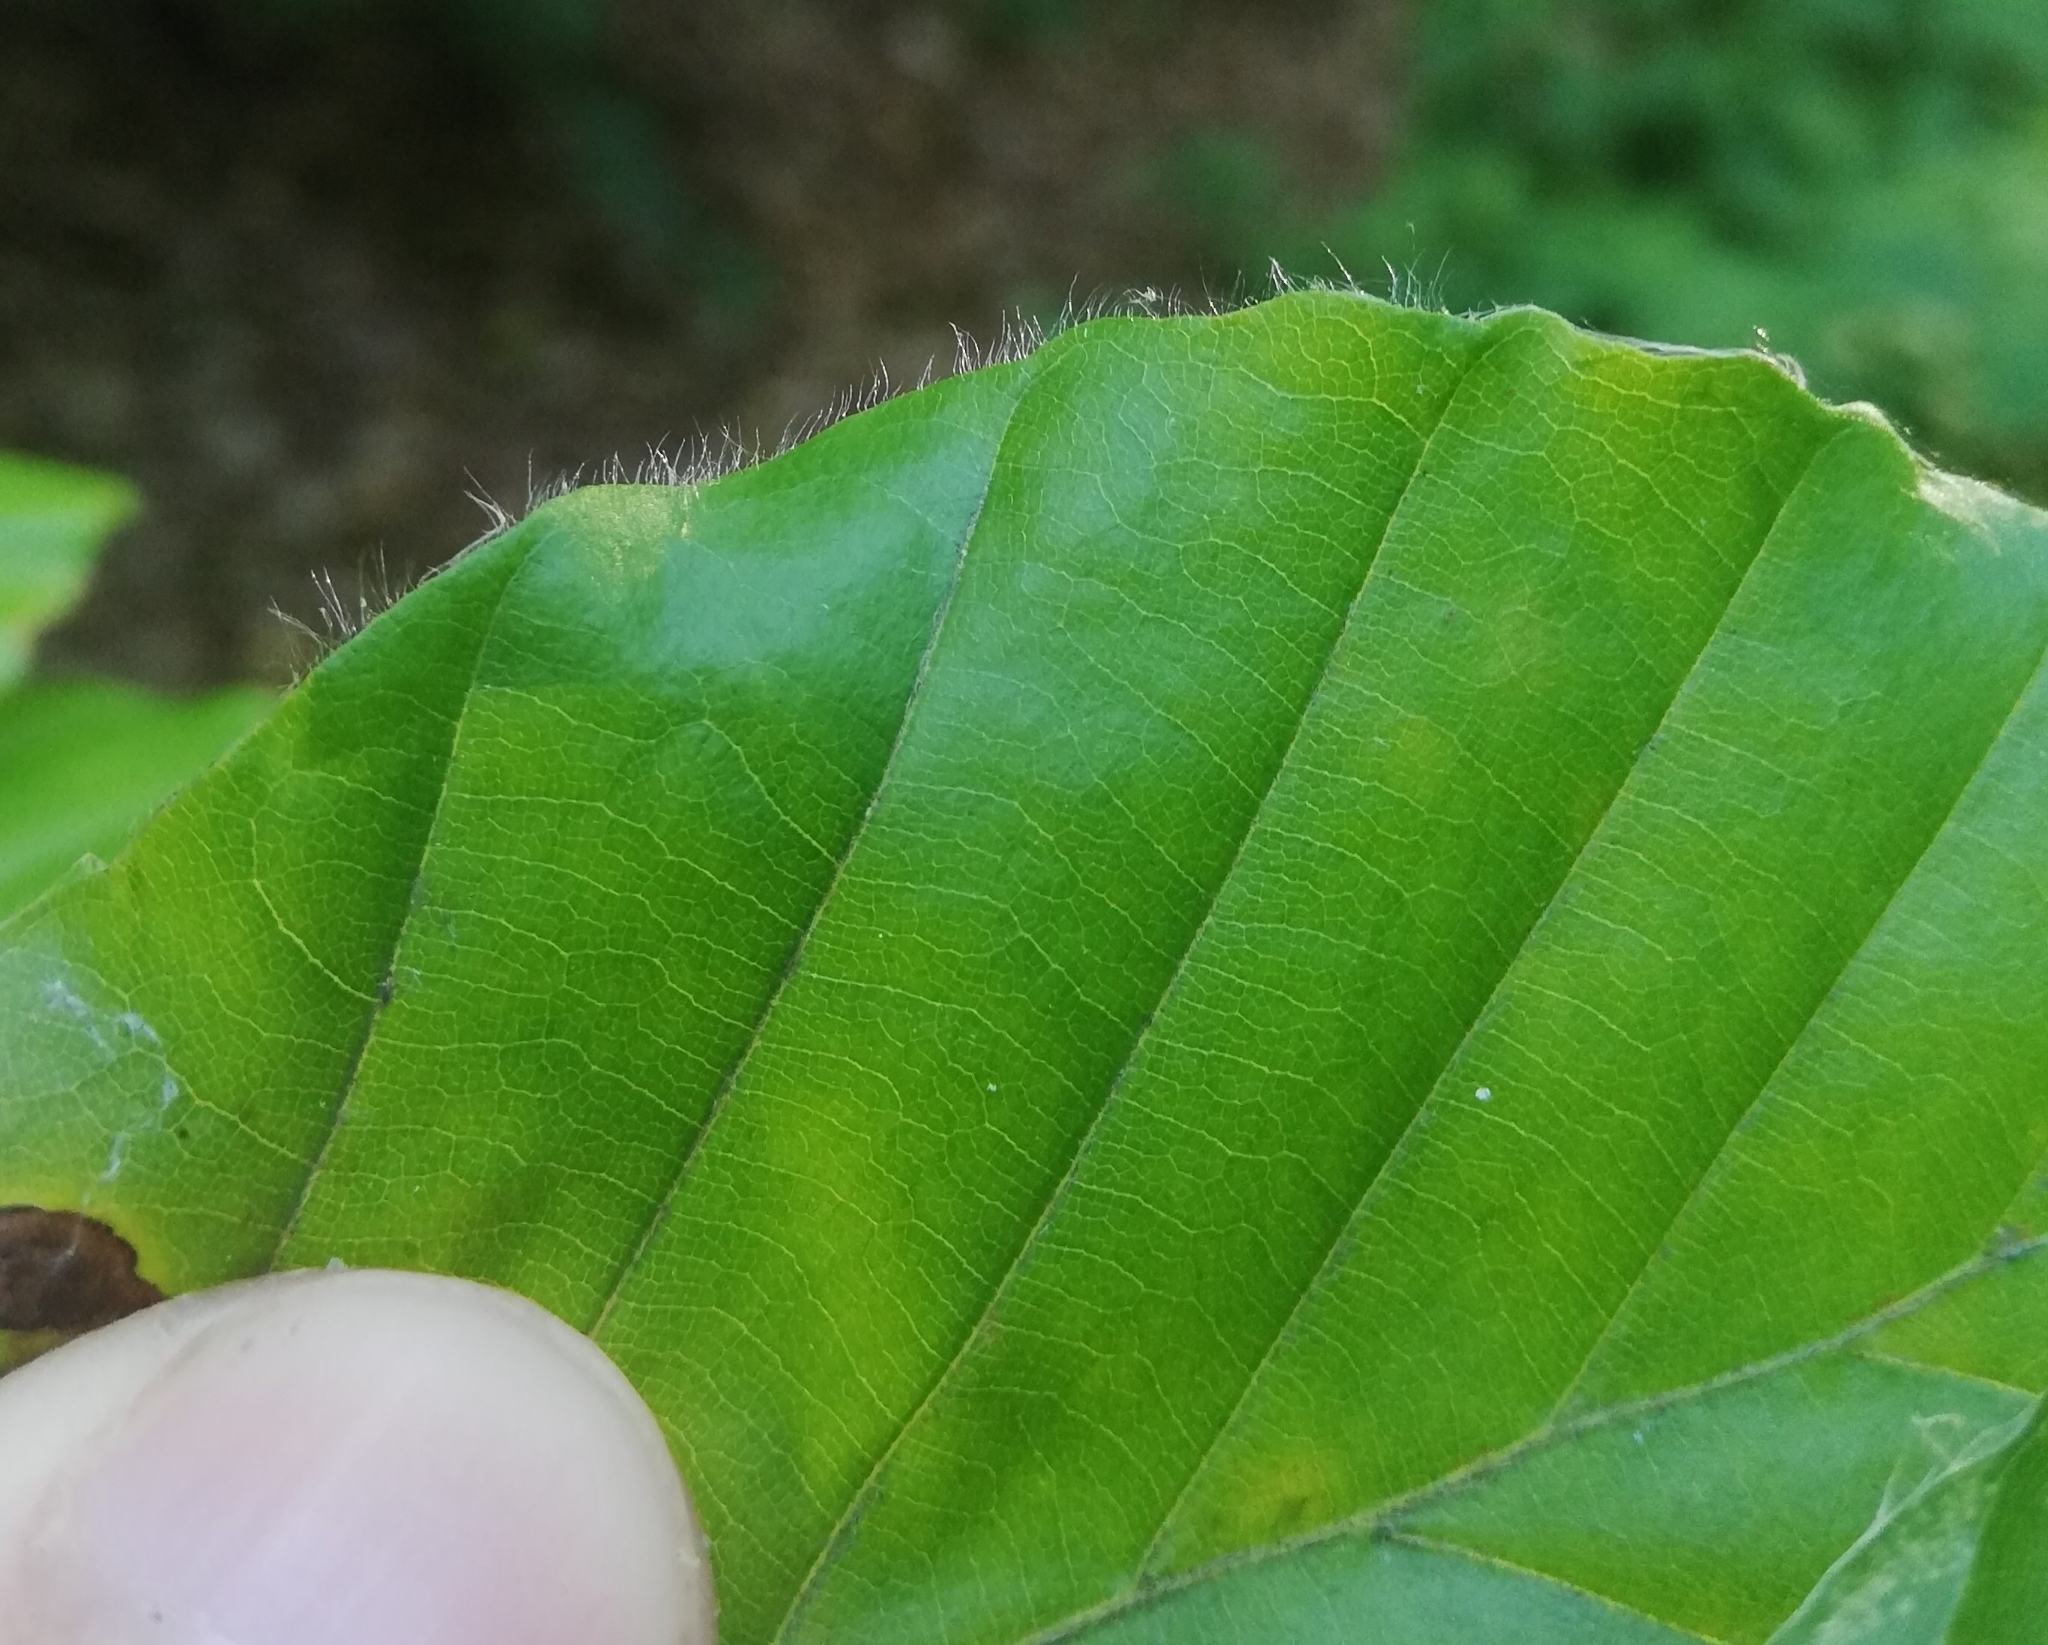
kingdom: Plantae
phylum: Tracheophyta
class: Magnoliopsida
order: Fagales
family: Fagaceae
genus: Fagus
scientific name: Fagus sylvatica
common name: Beech
